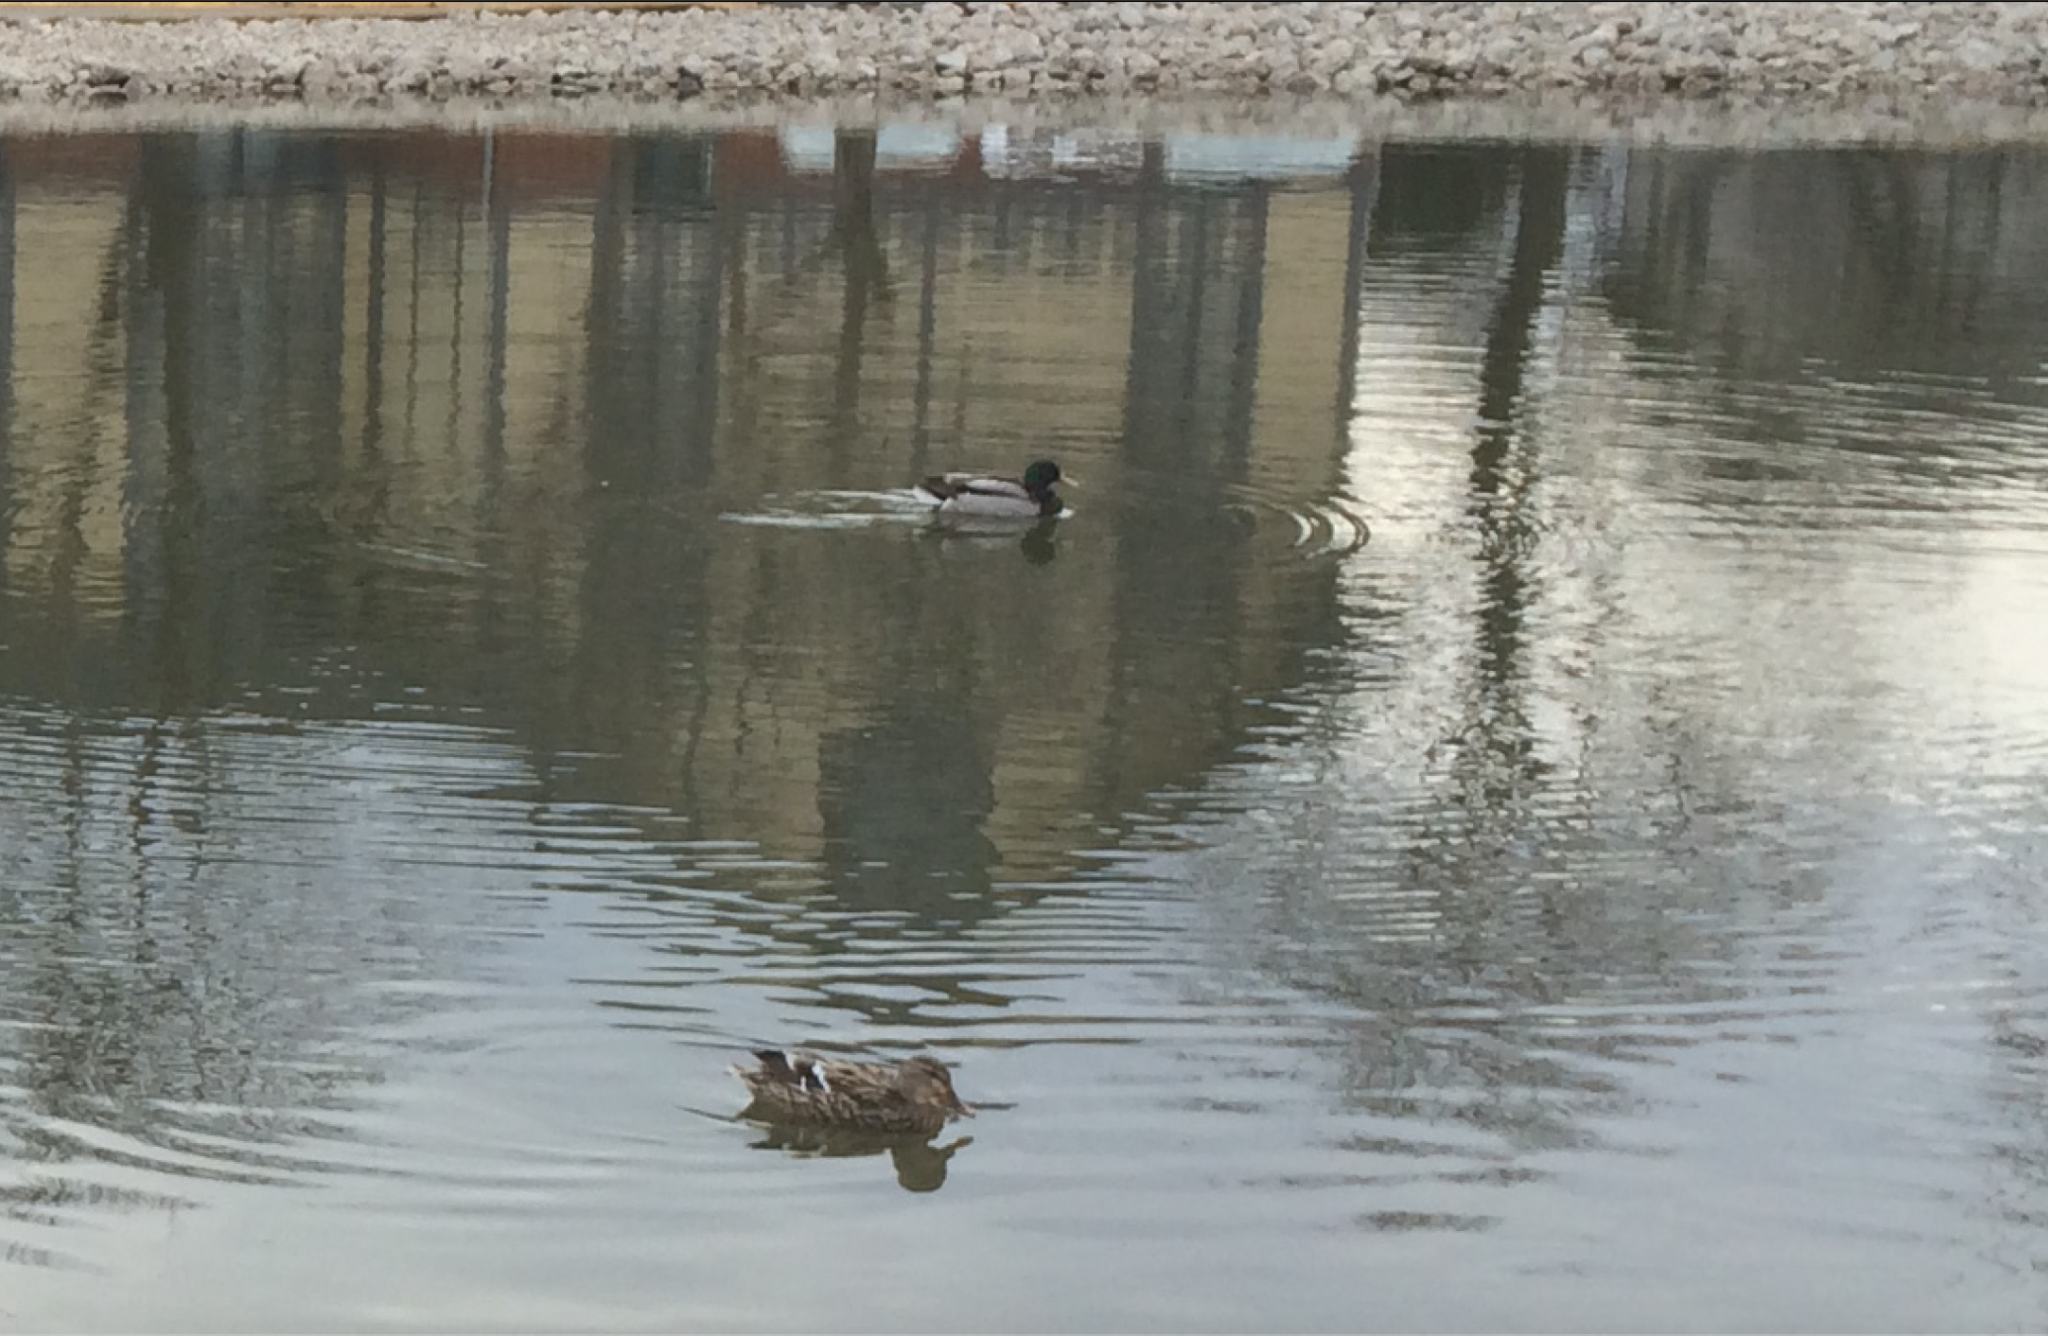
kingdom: Animalia
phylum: Chordata
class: Aves
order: Anseriformes
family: Anatidae
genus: Anas
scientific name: Anas platyrhynchos
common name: Mallard
